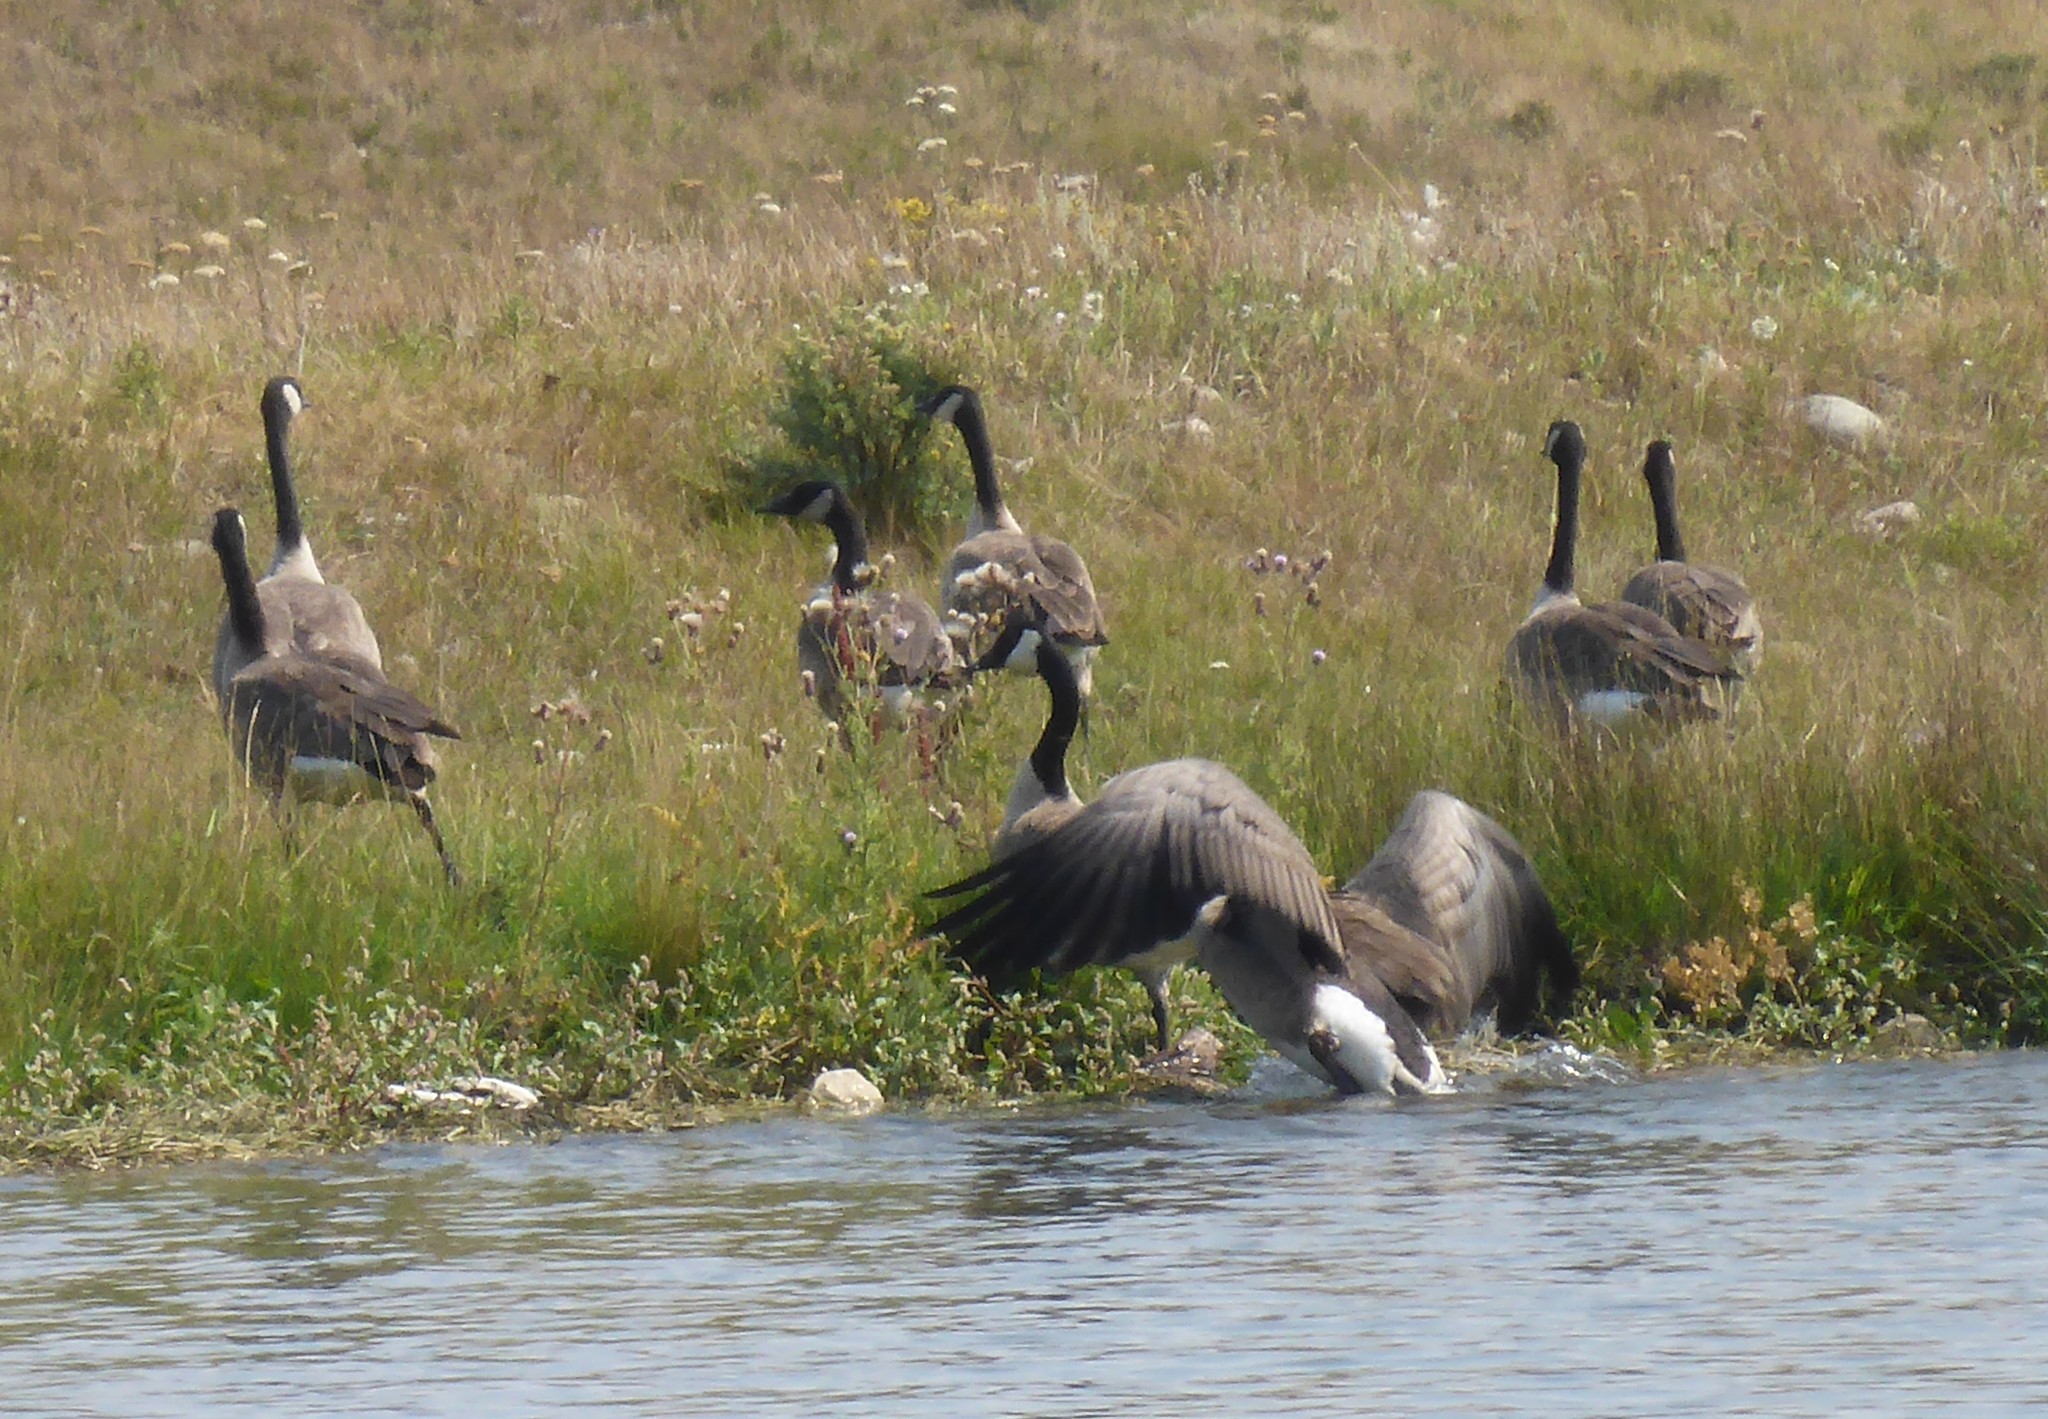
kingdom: Animalia
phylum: Chordata
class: Aves
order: Anseriformes
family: Anatidae
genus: Branta
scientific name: Branta canadensis
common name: Canada goose
